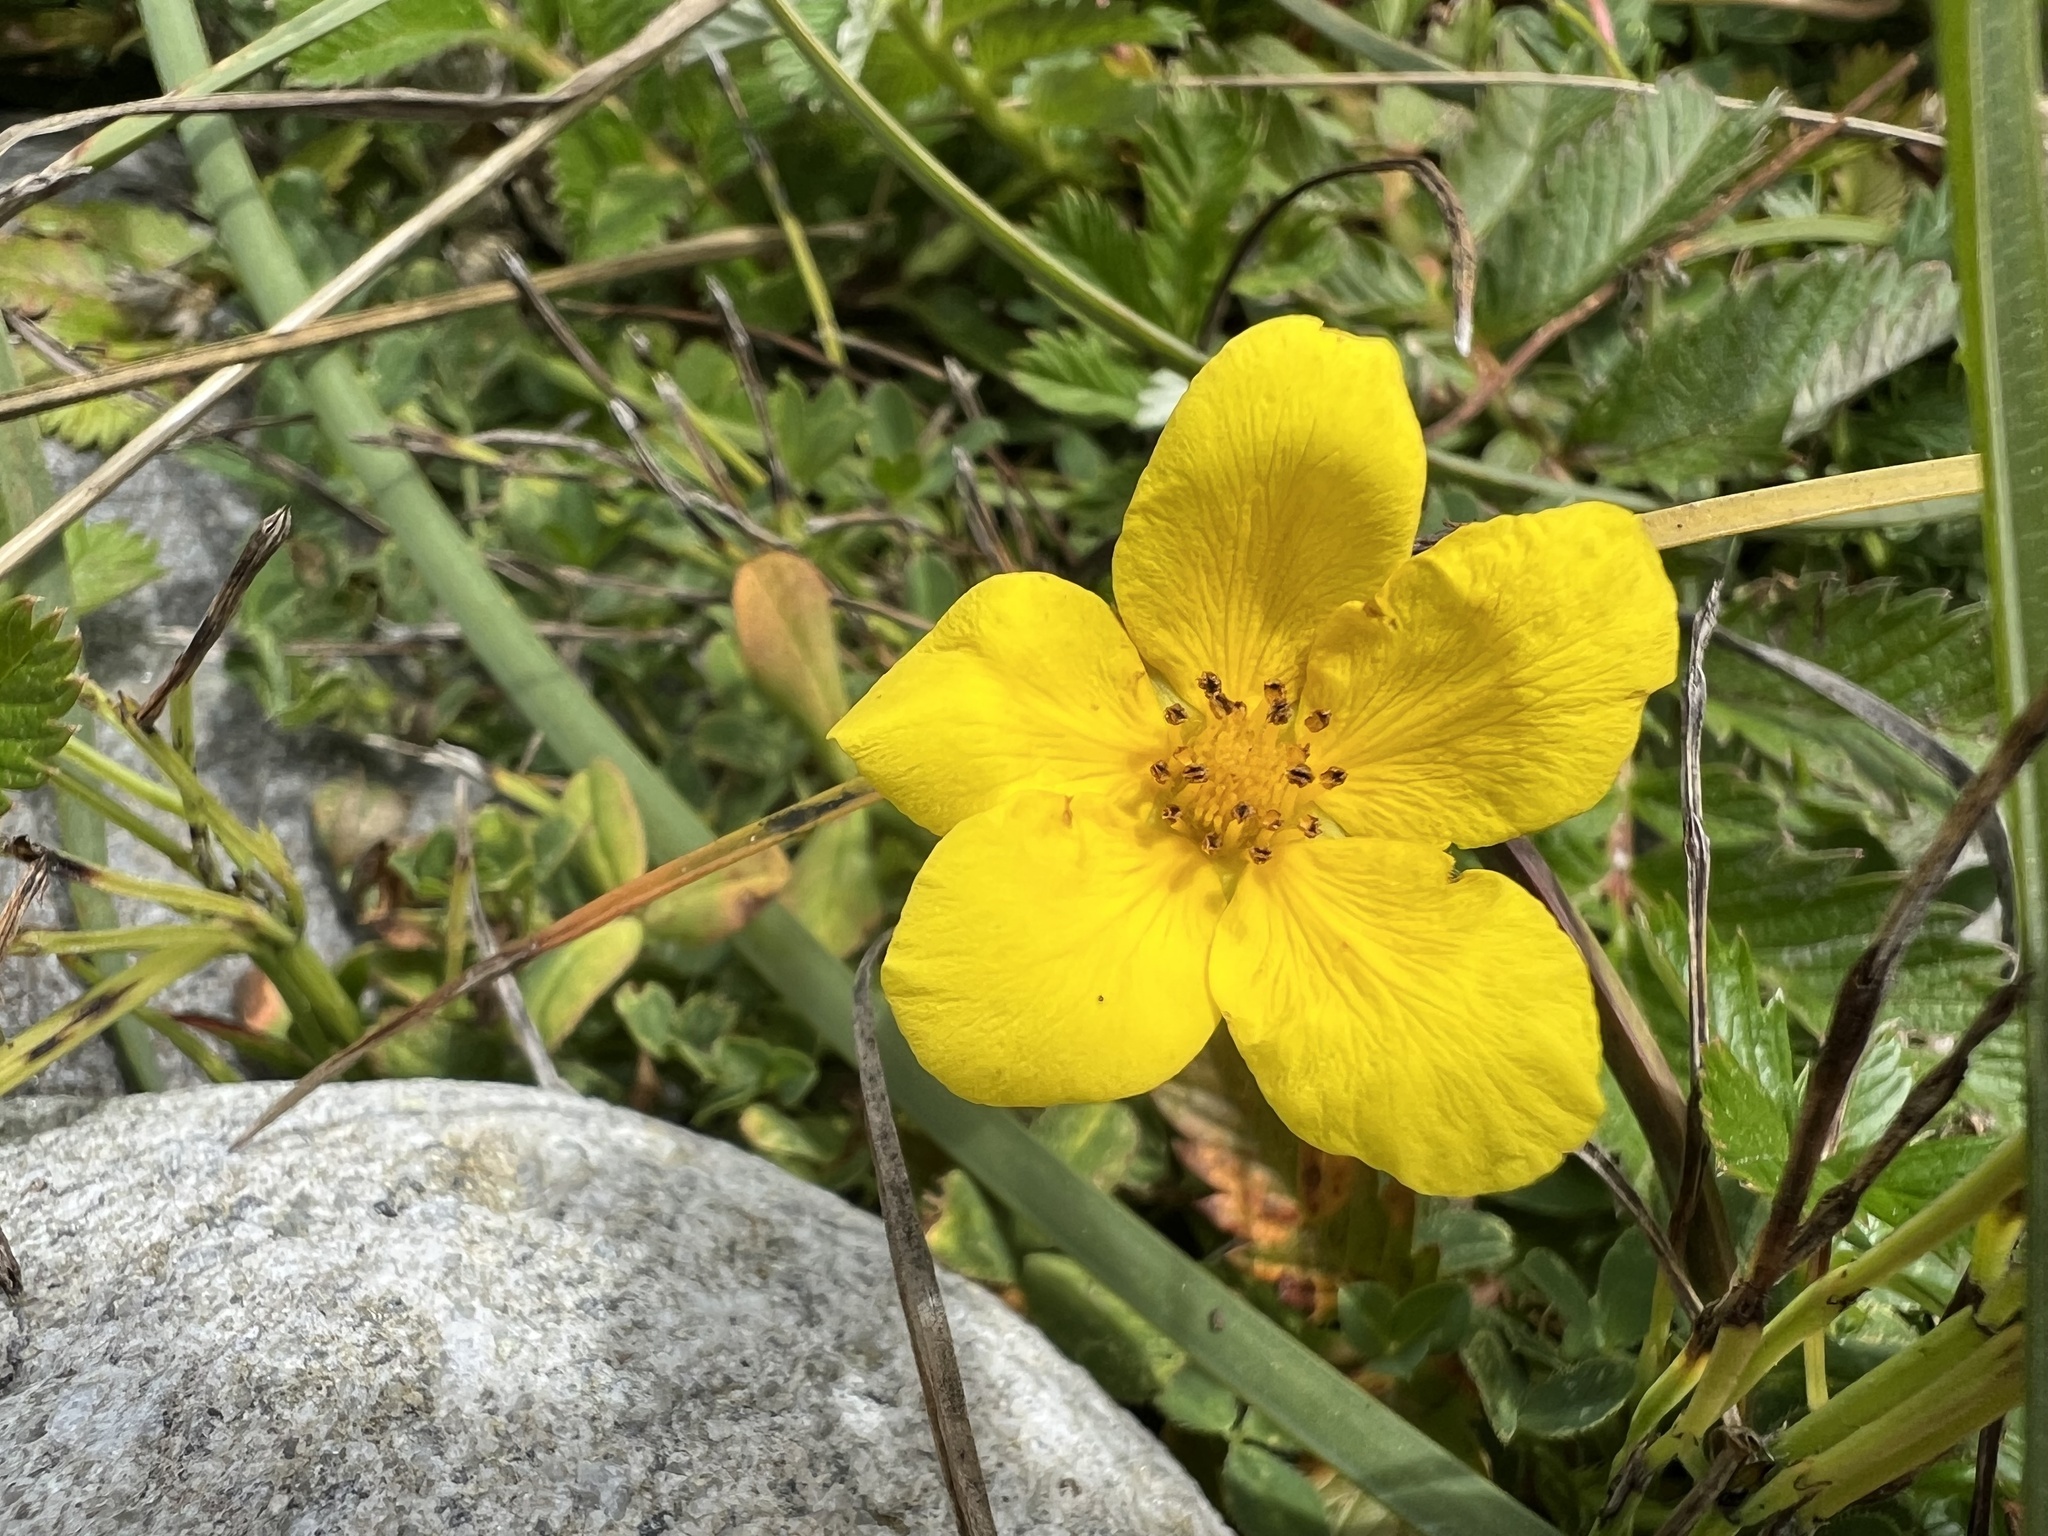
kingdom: Plantae
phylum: Tracheophyta
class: Magnoliopsida
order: Rosales
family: Rosaceae
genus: Argentina
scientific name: Argentina anserina
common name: Common silverweed
